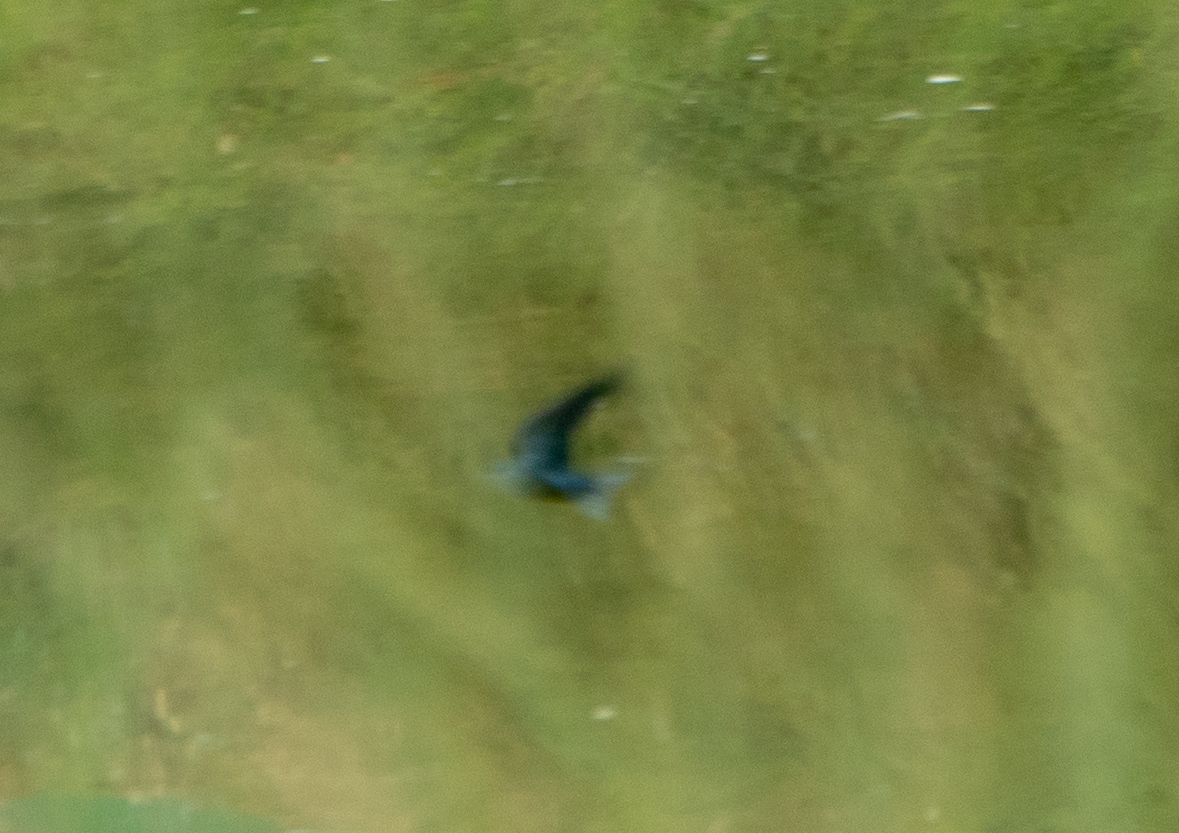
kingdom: Animalia
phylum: Chordata
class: Aves
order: Passeriformes
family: Hirundinidae
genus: Hirundo
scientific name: Hirundo rustica
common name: Barn swallow
